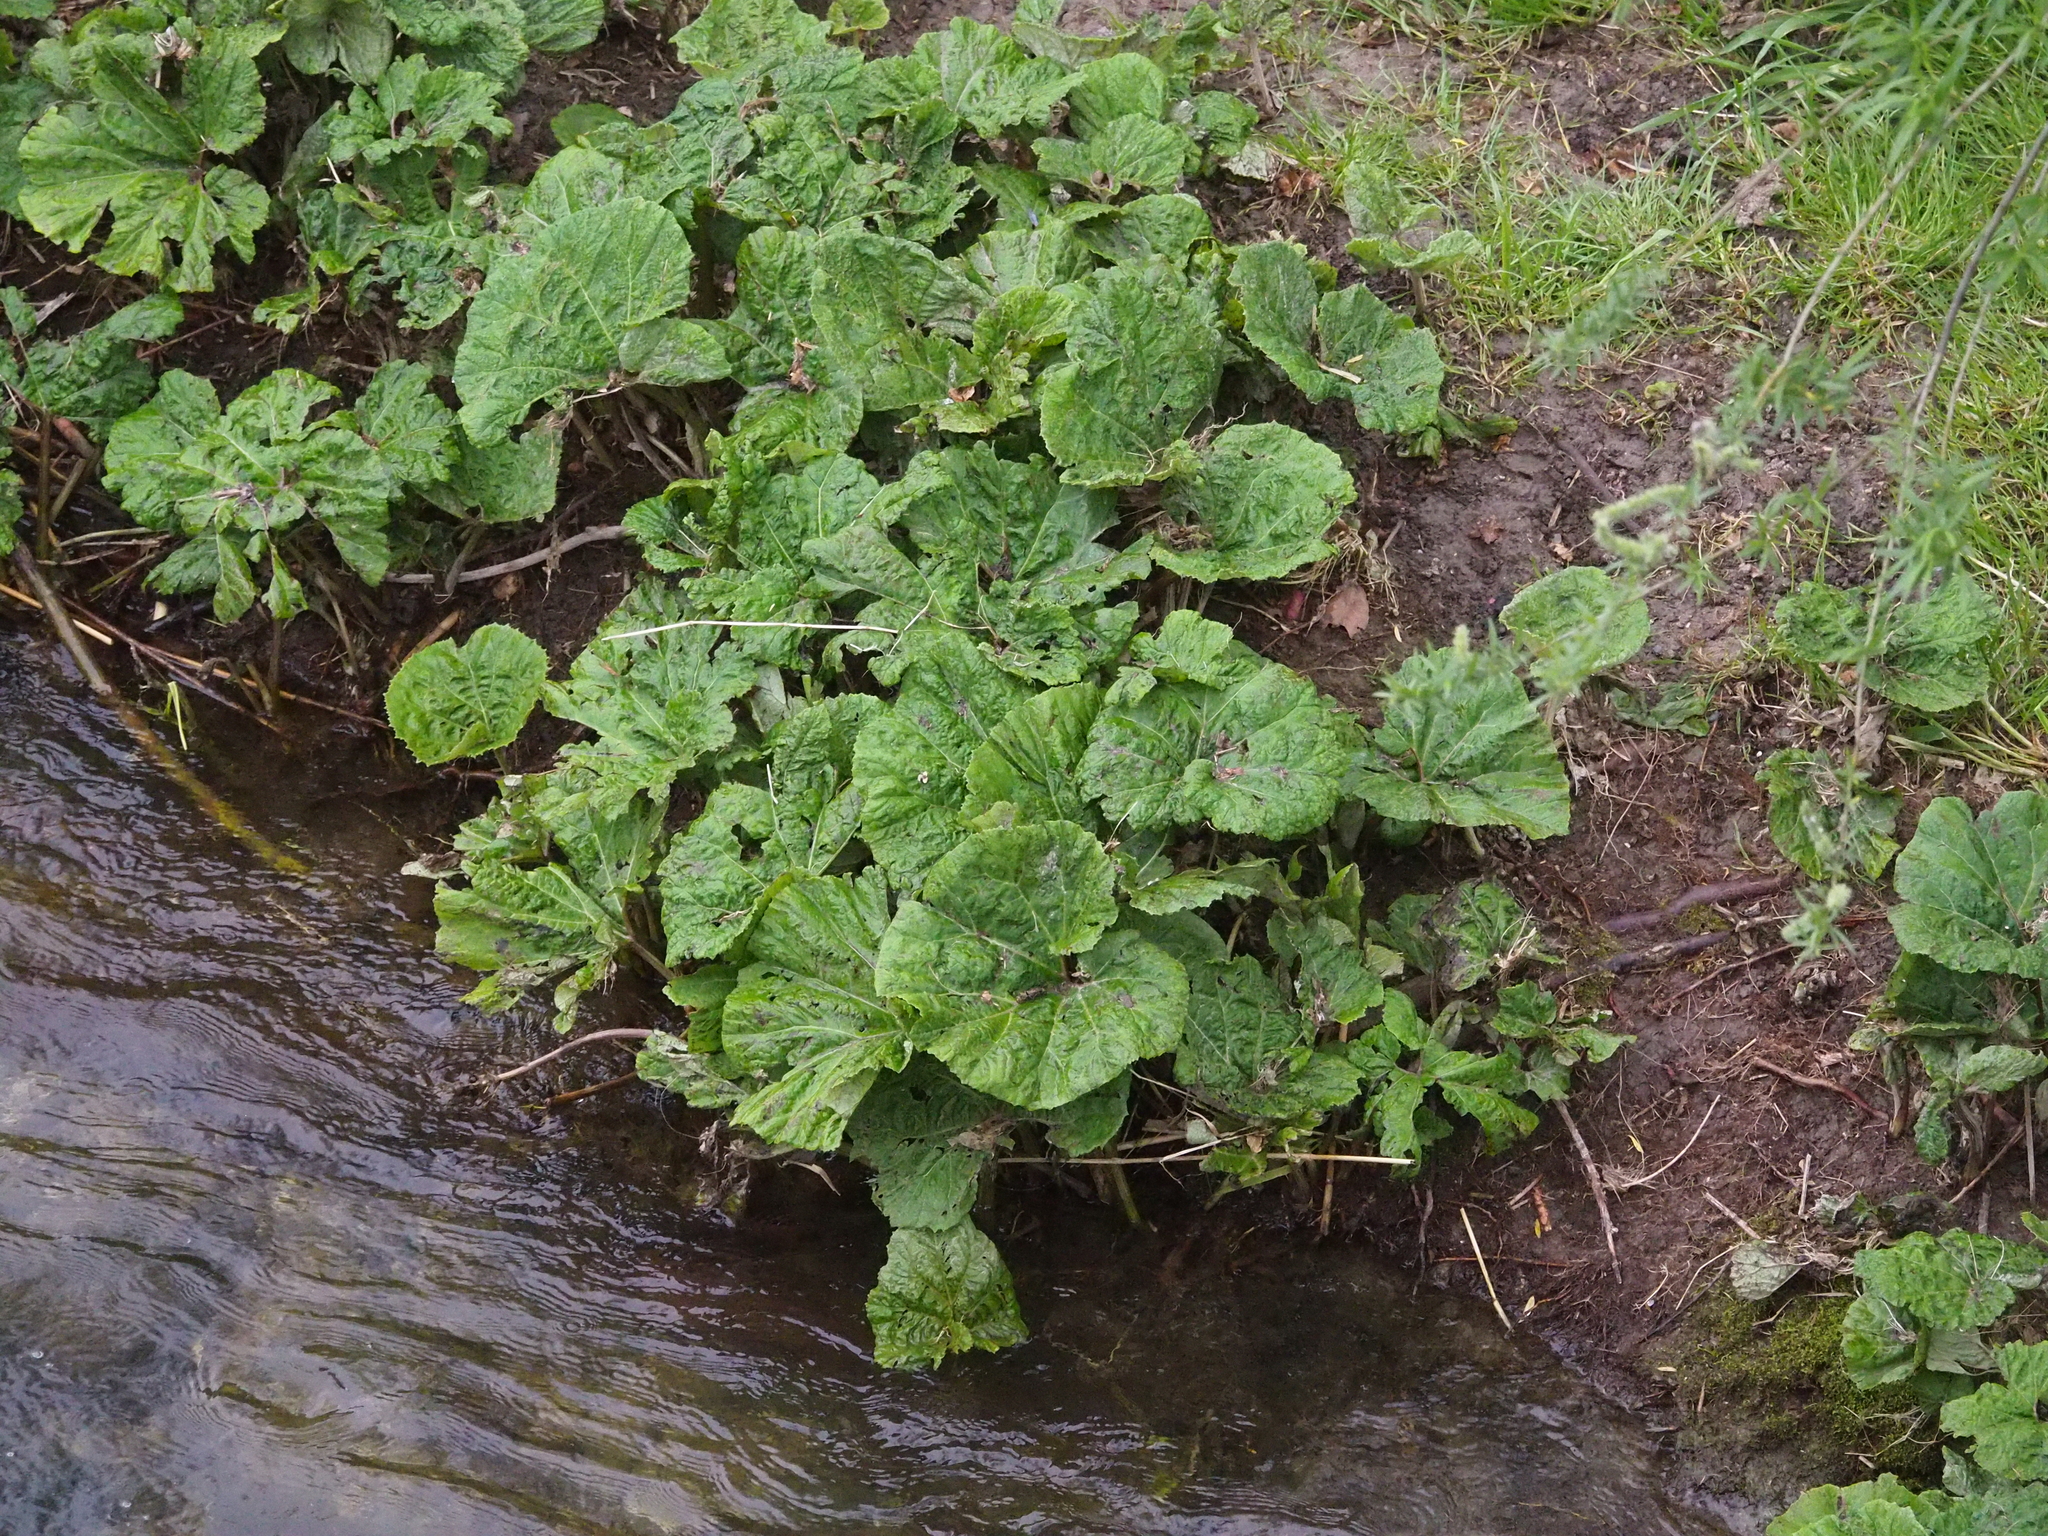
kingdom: Plantae
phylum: Tracheophyta
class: Magnoliopsida
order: Asterales
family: Asteraceae
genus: Petasites
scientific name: Petasites hybridus
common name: Butterbur
